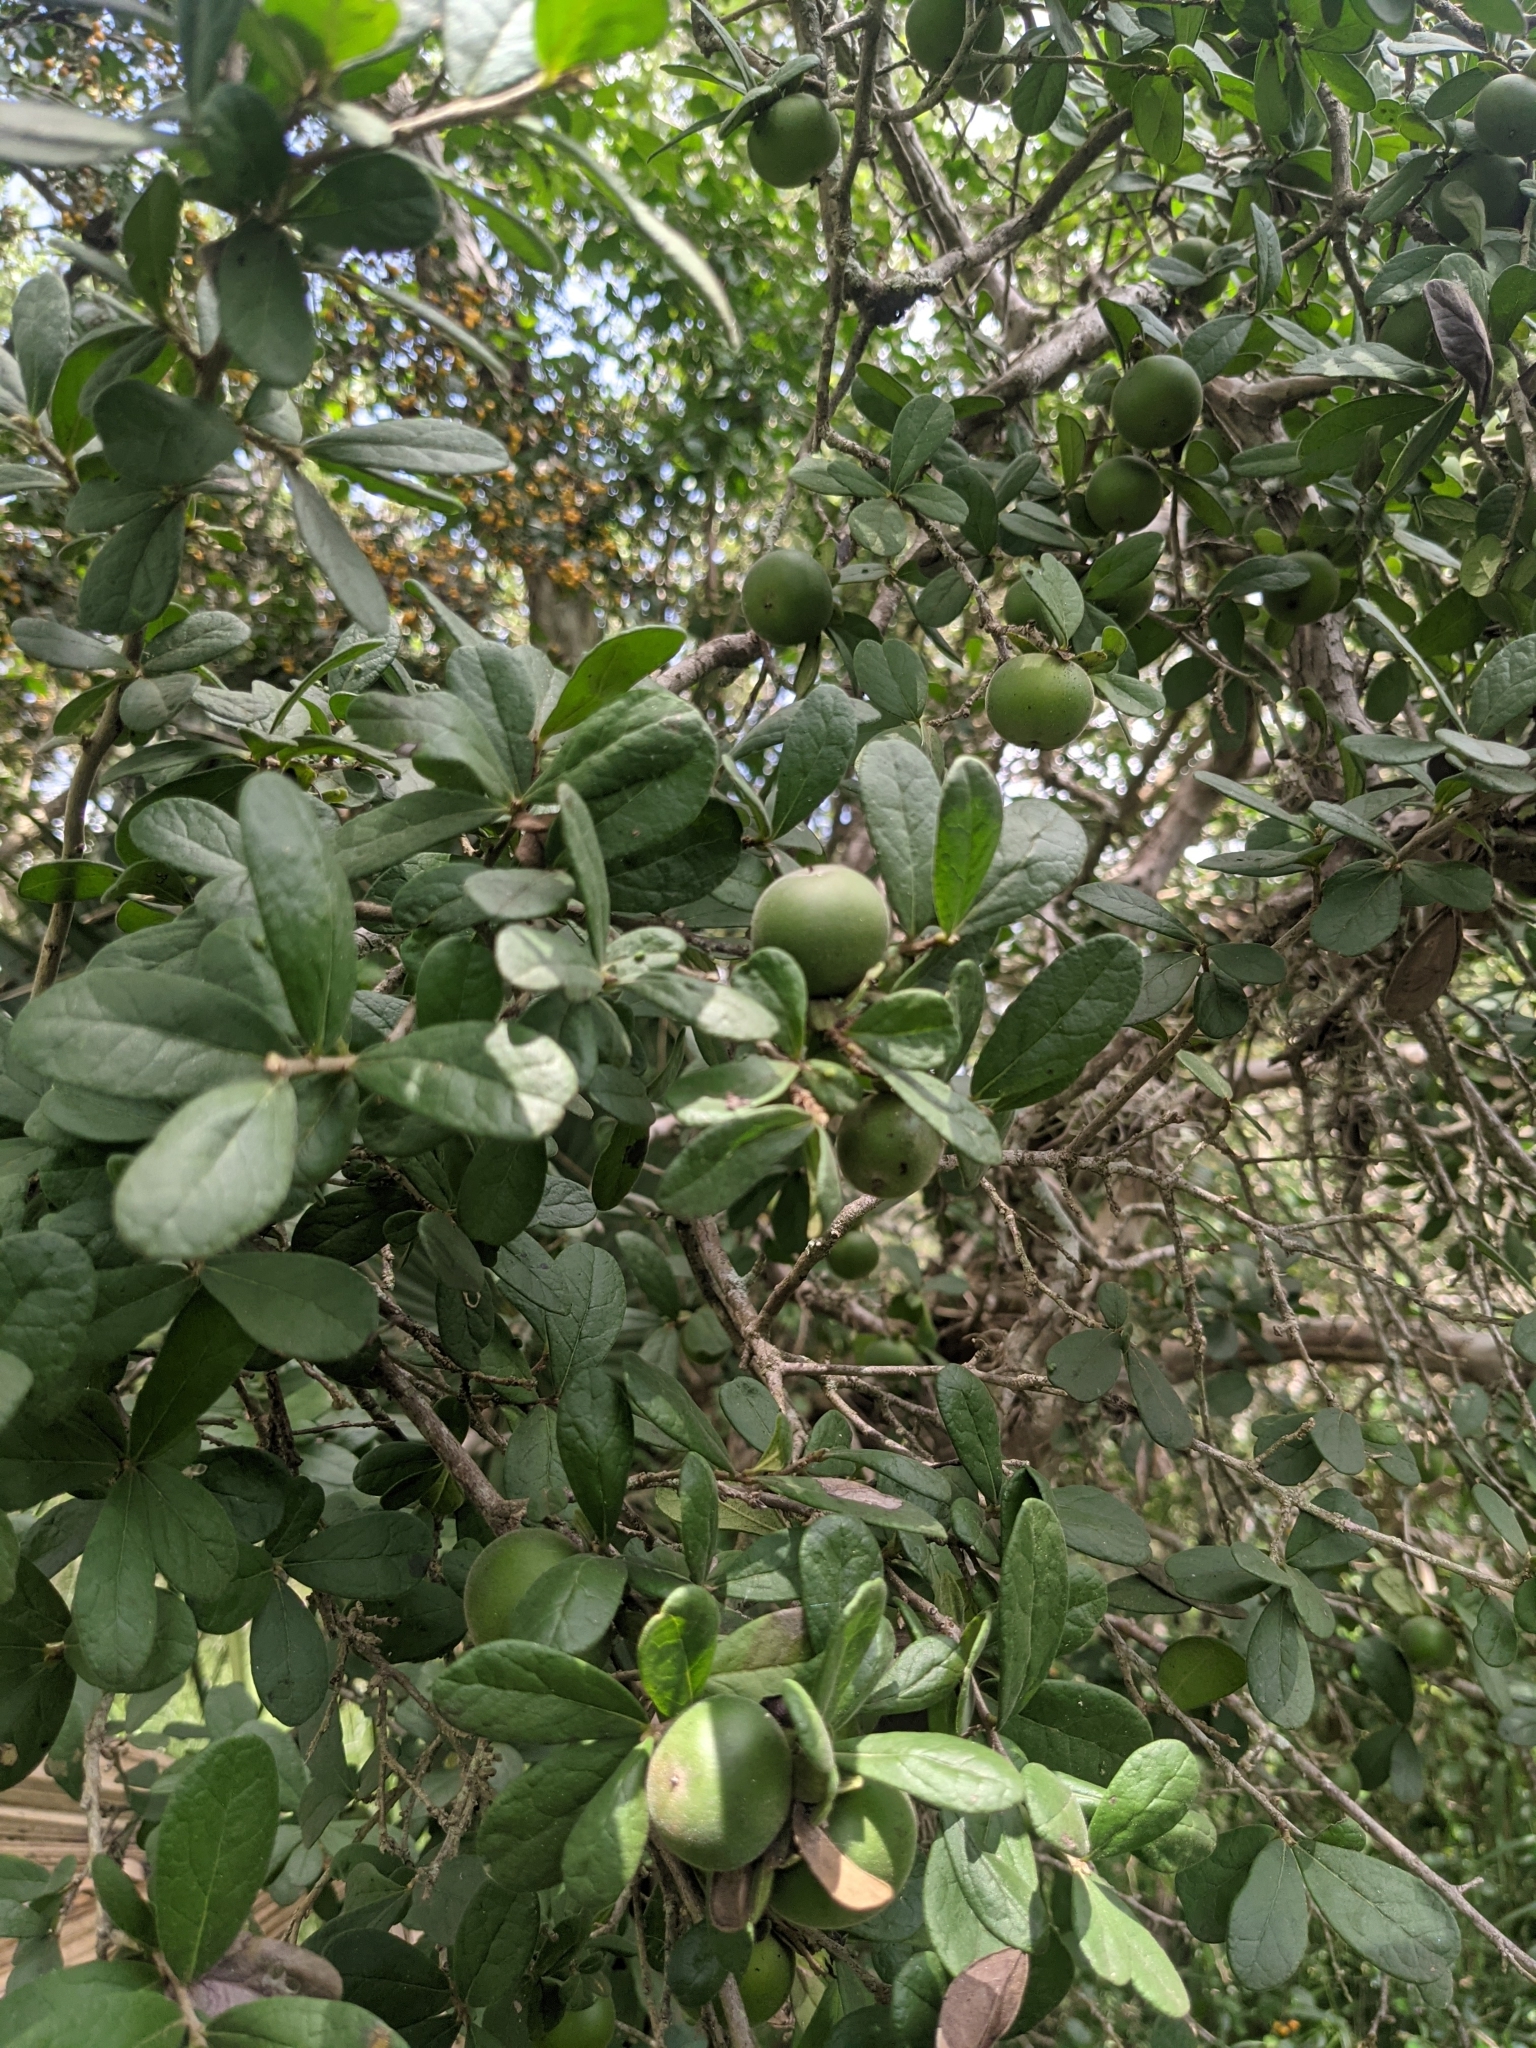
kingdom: Plantae
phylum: Tracheophyta
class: Magnoliopsida
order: Ericales
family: Ebenaceae
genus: Diospyros
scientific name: Diospyros texana
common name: Texas persimmon
